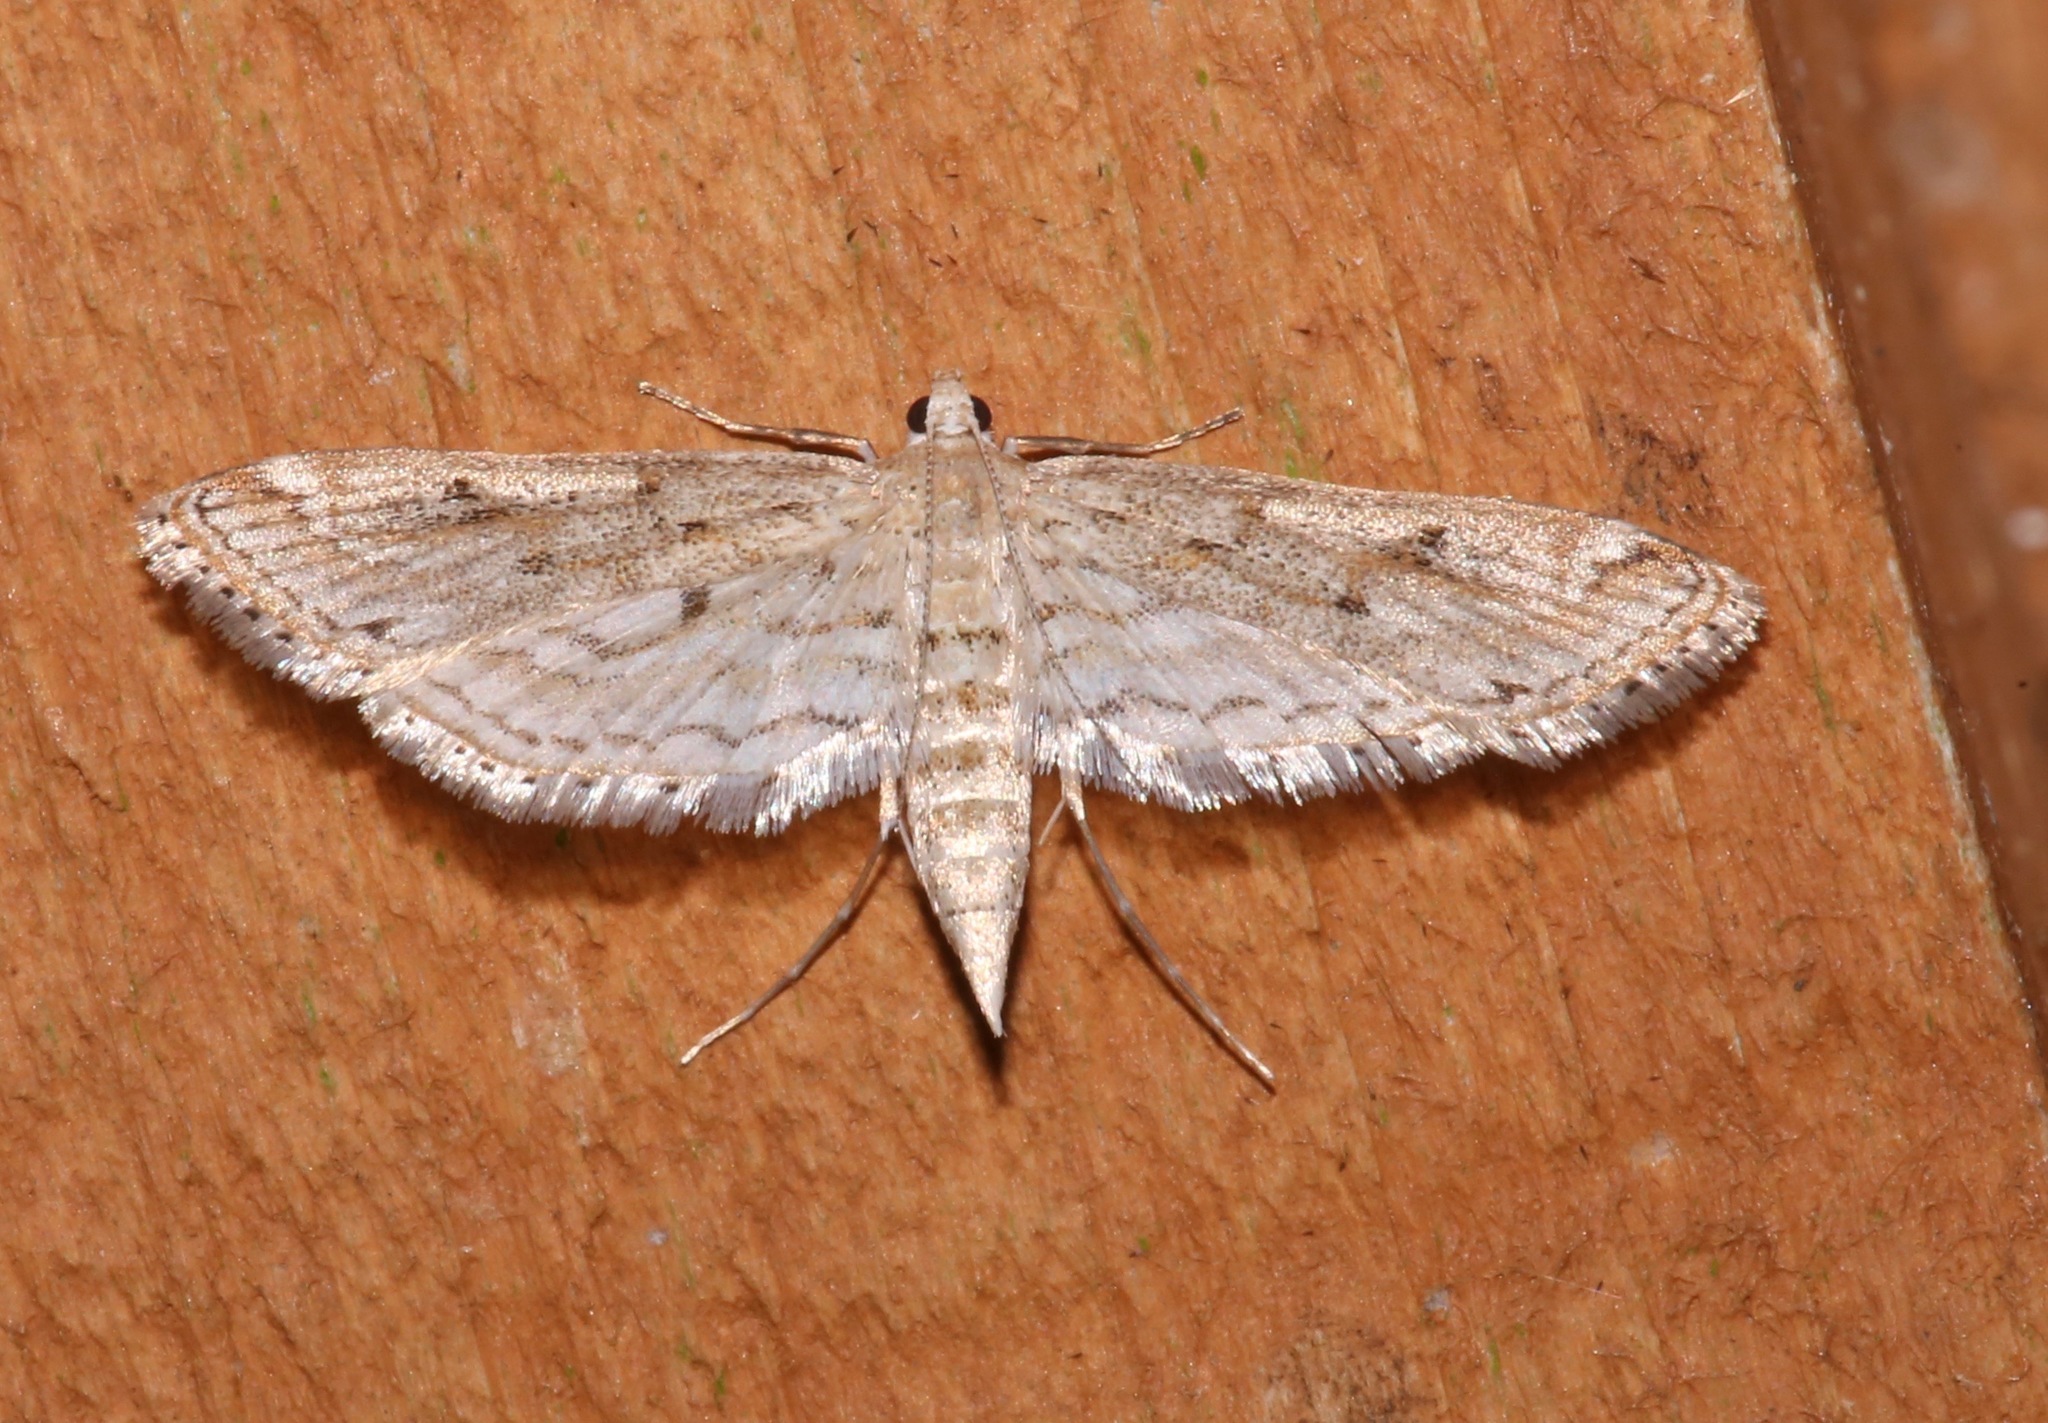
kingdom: Animalia
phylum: Arthropoda
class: Insecta
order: Lepidoptera
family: Crambidae
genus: Parapoynx
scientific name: Parapoynx allionealis
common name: Bladderwort casemaker
